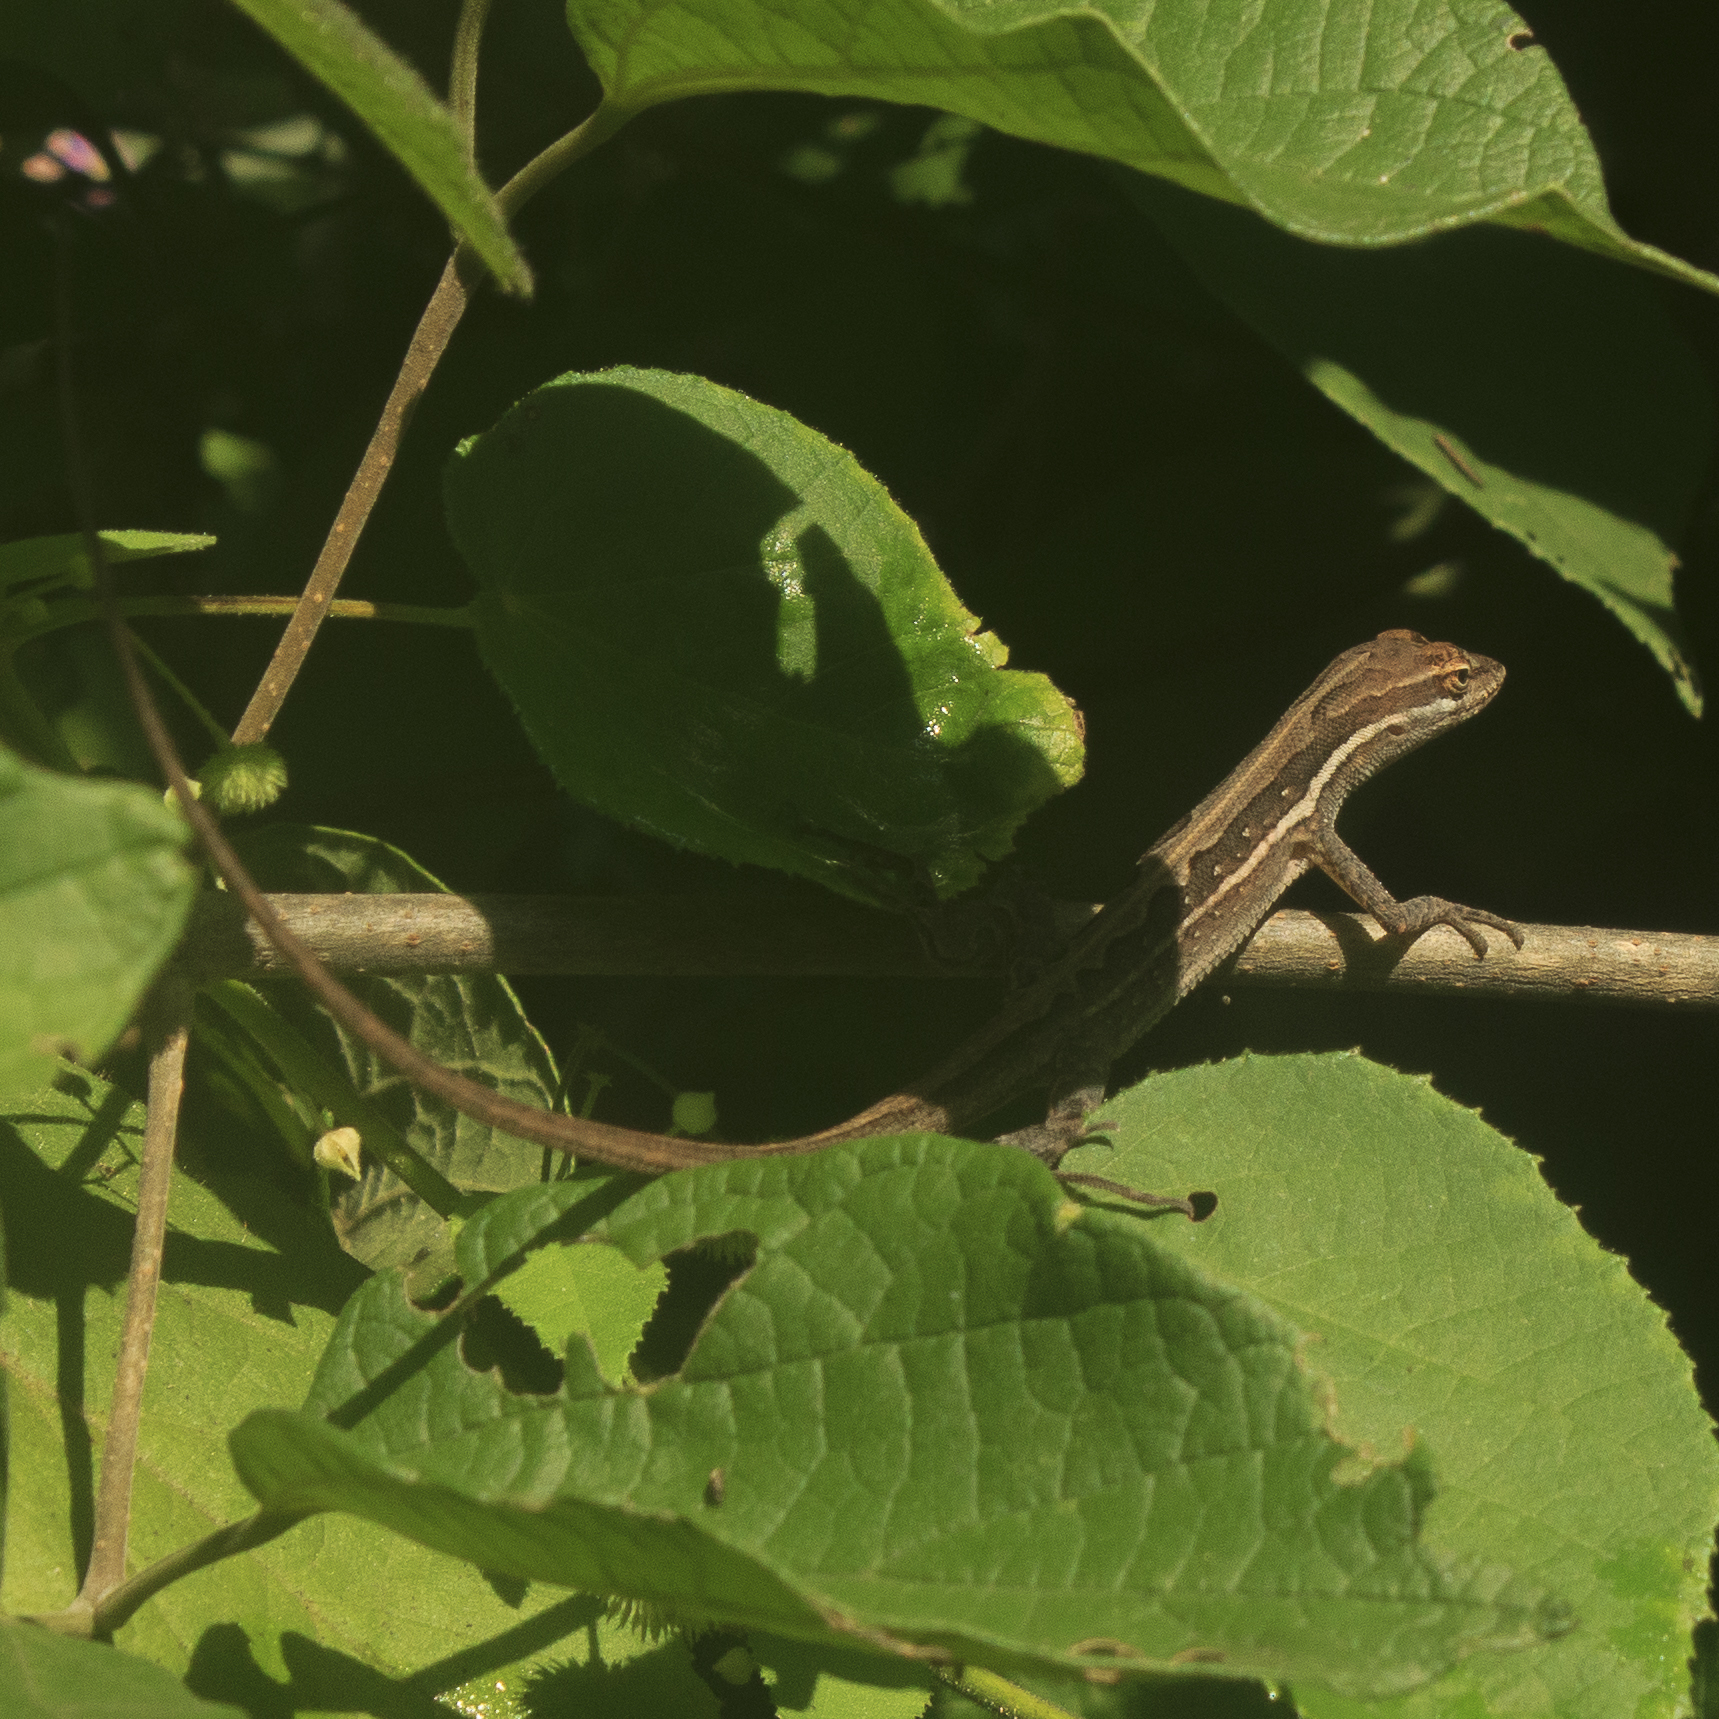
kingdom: Animalia
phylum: Chordata
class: Squamata
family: Dactyloidae
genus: Anolis
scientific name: Anolis auratus
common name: Grass anole
